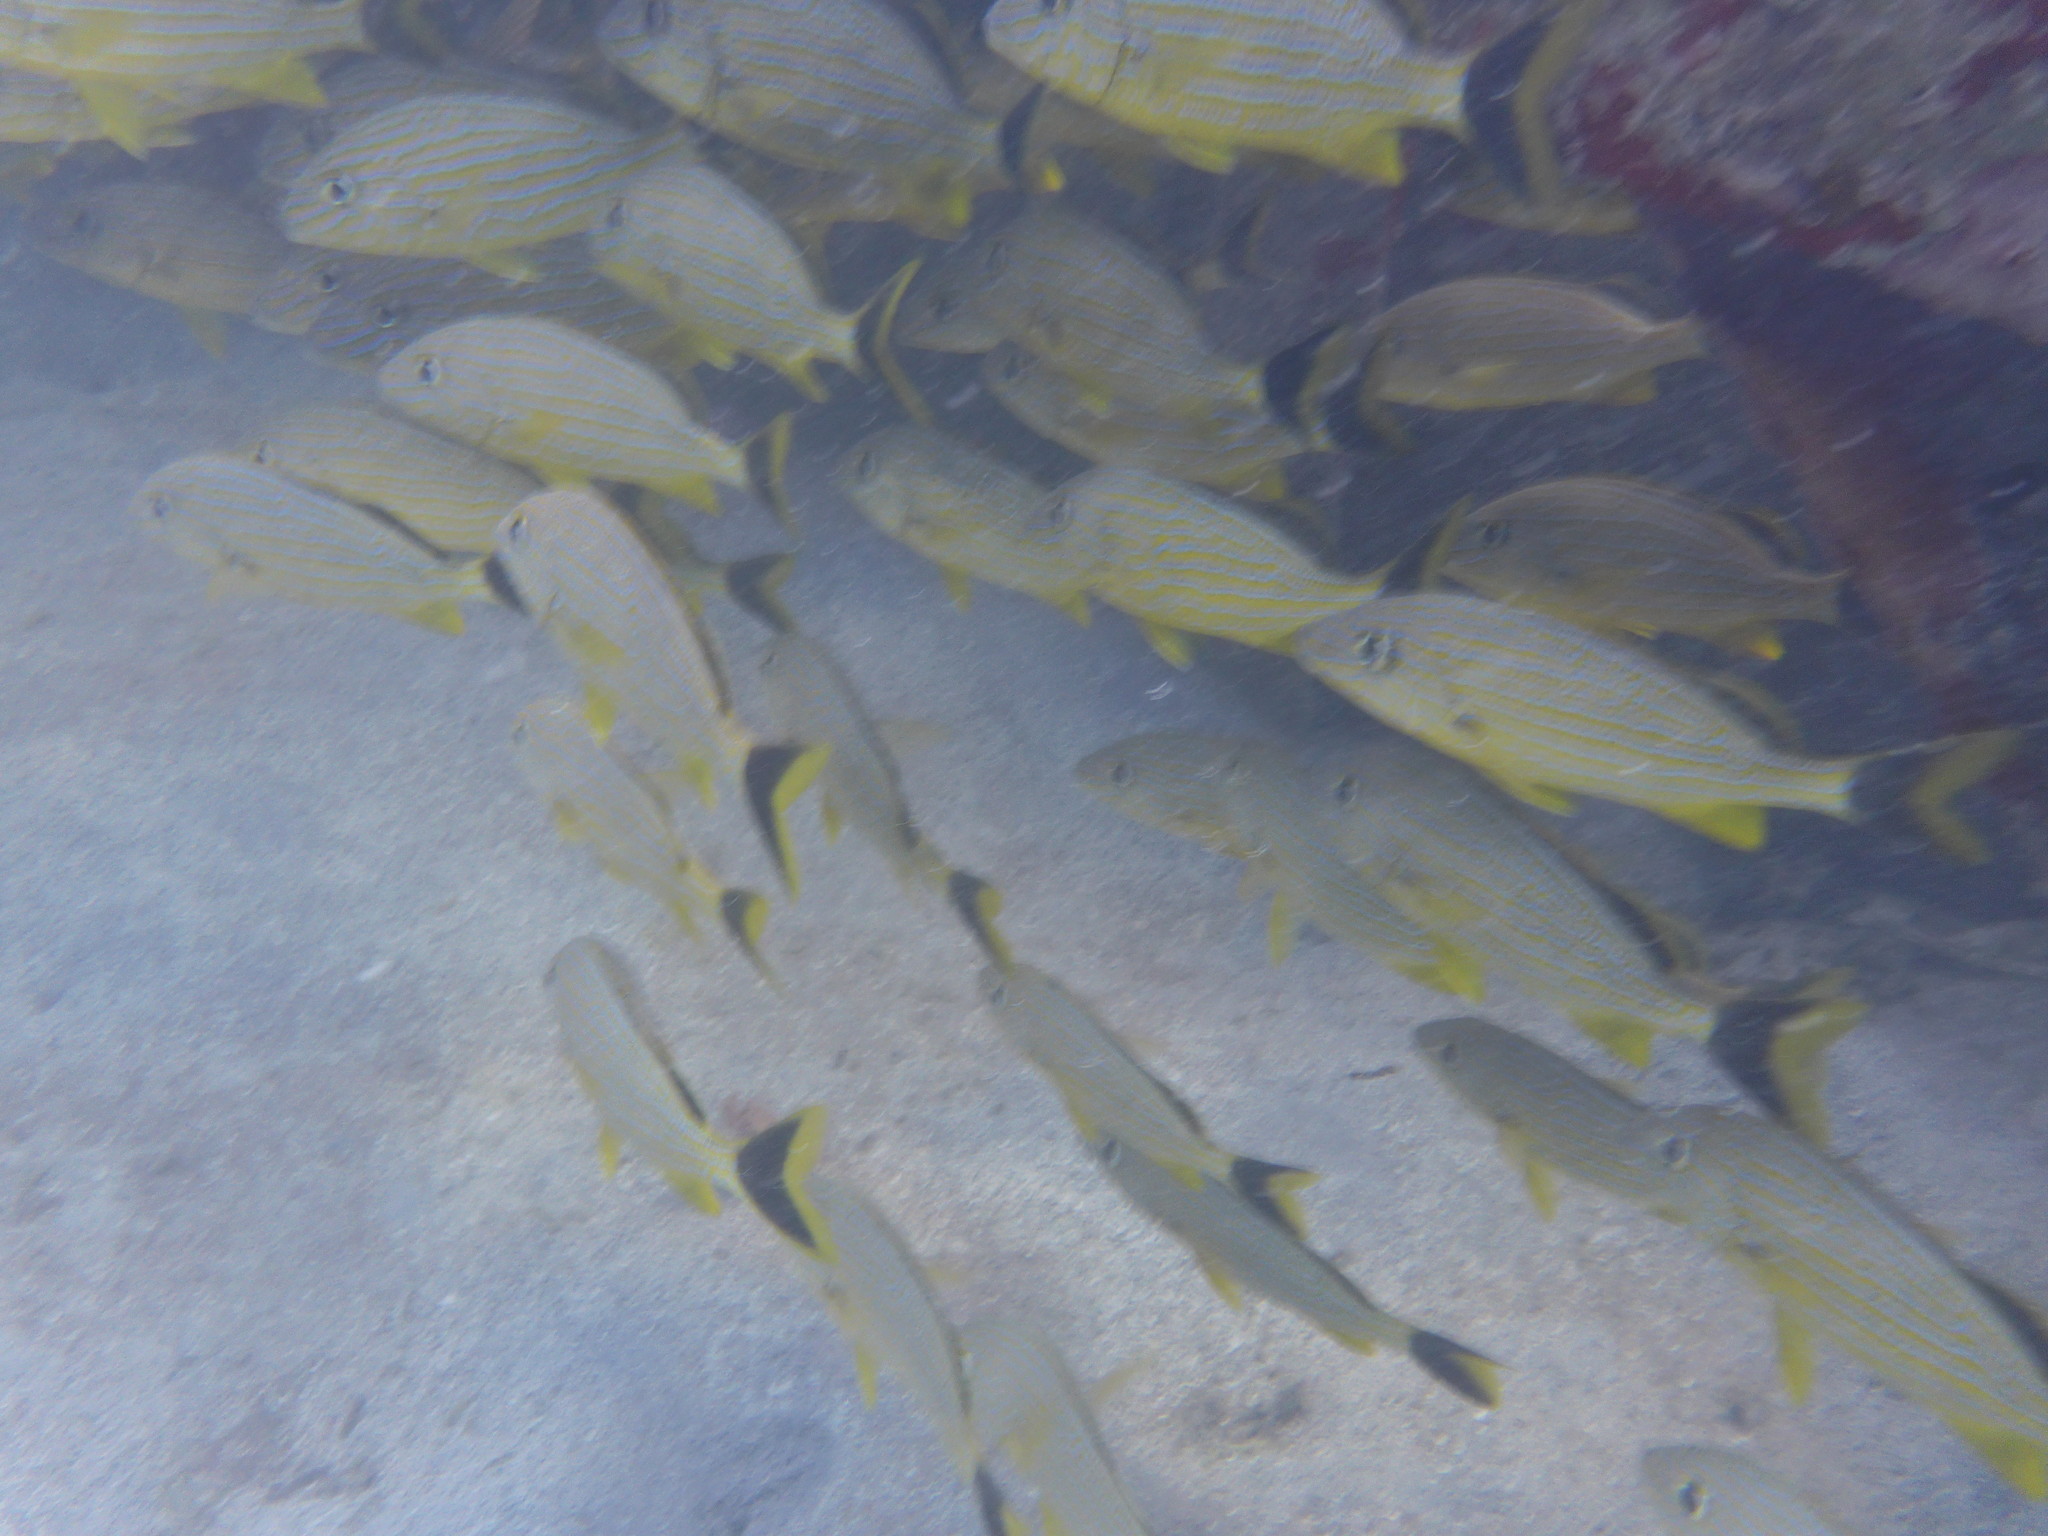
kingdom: Animalia
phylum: Chordata
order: Perciformes
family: Haemulidae
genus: Haemulon
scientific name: Haemulon sciurus
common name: Bluestriped grunt
